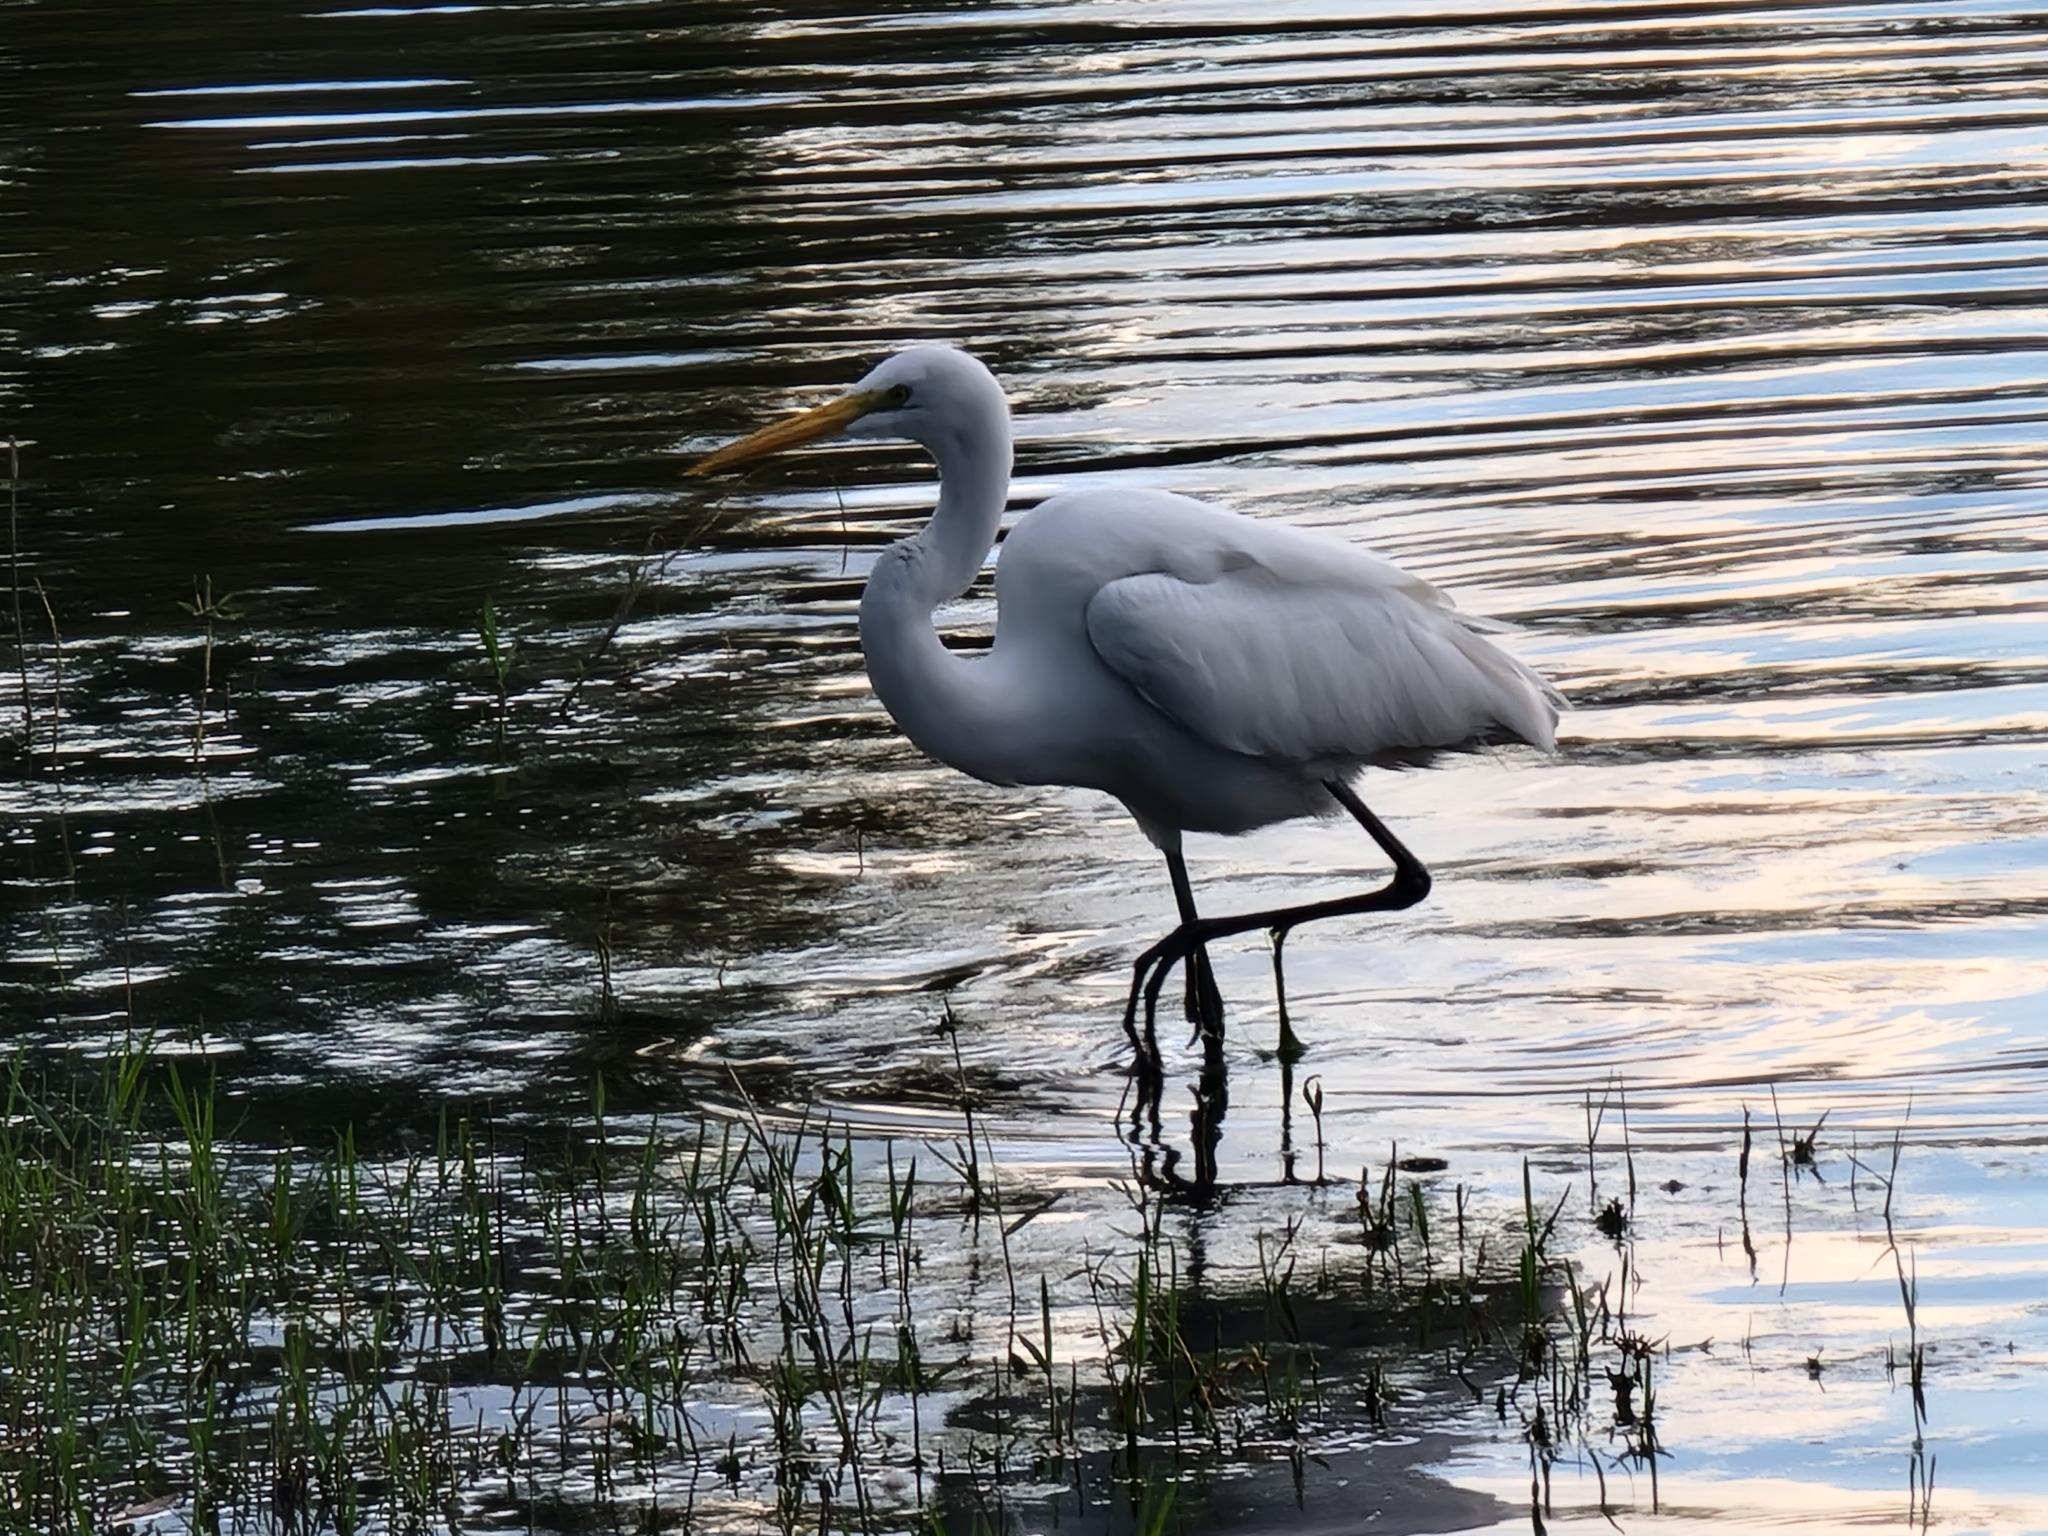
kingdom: Animalia
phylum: Chordata
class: Aves
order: Pelecaniformes
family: Ardeidae
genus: Ardea
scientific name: Ardea alba
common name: Great egret
